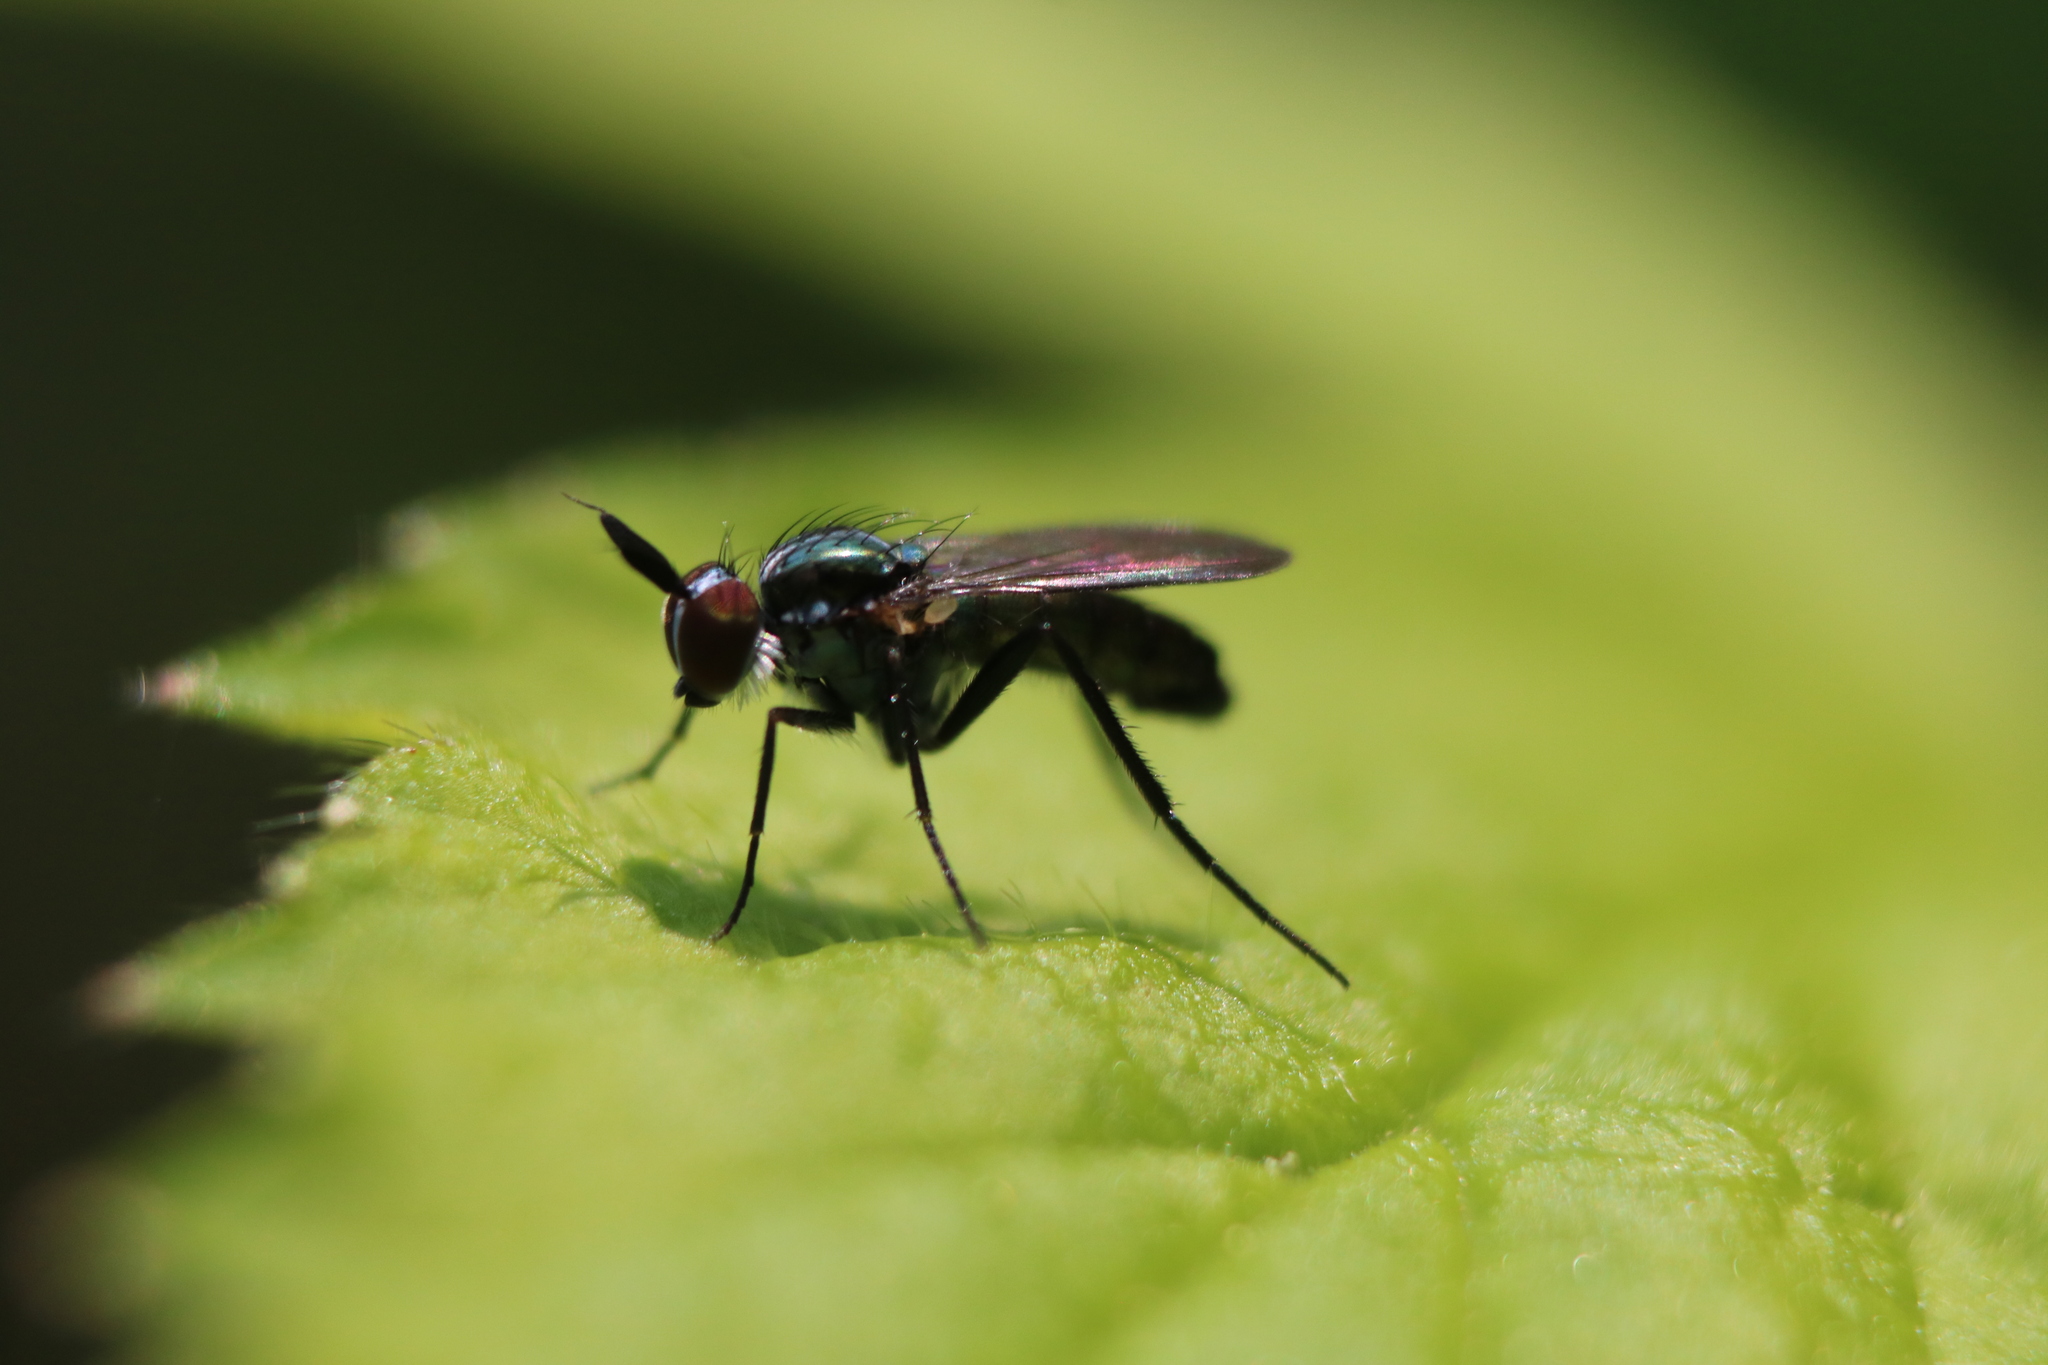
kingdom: Animalia
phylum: Arthropoda
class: Insecta
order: Diptera
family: Dolichopodidae
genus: Rhaphium
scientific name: Rhaphium melampus
